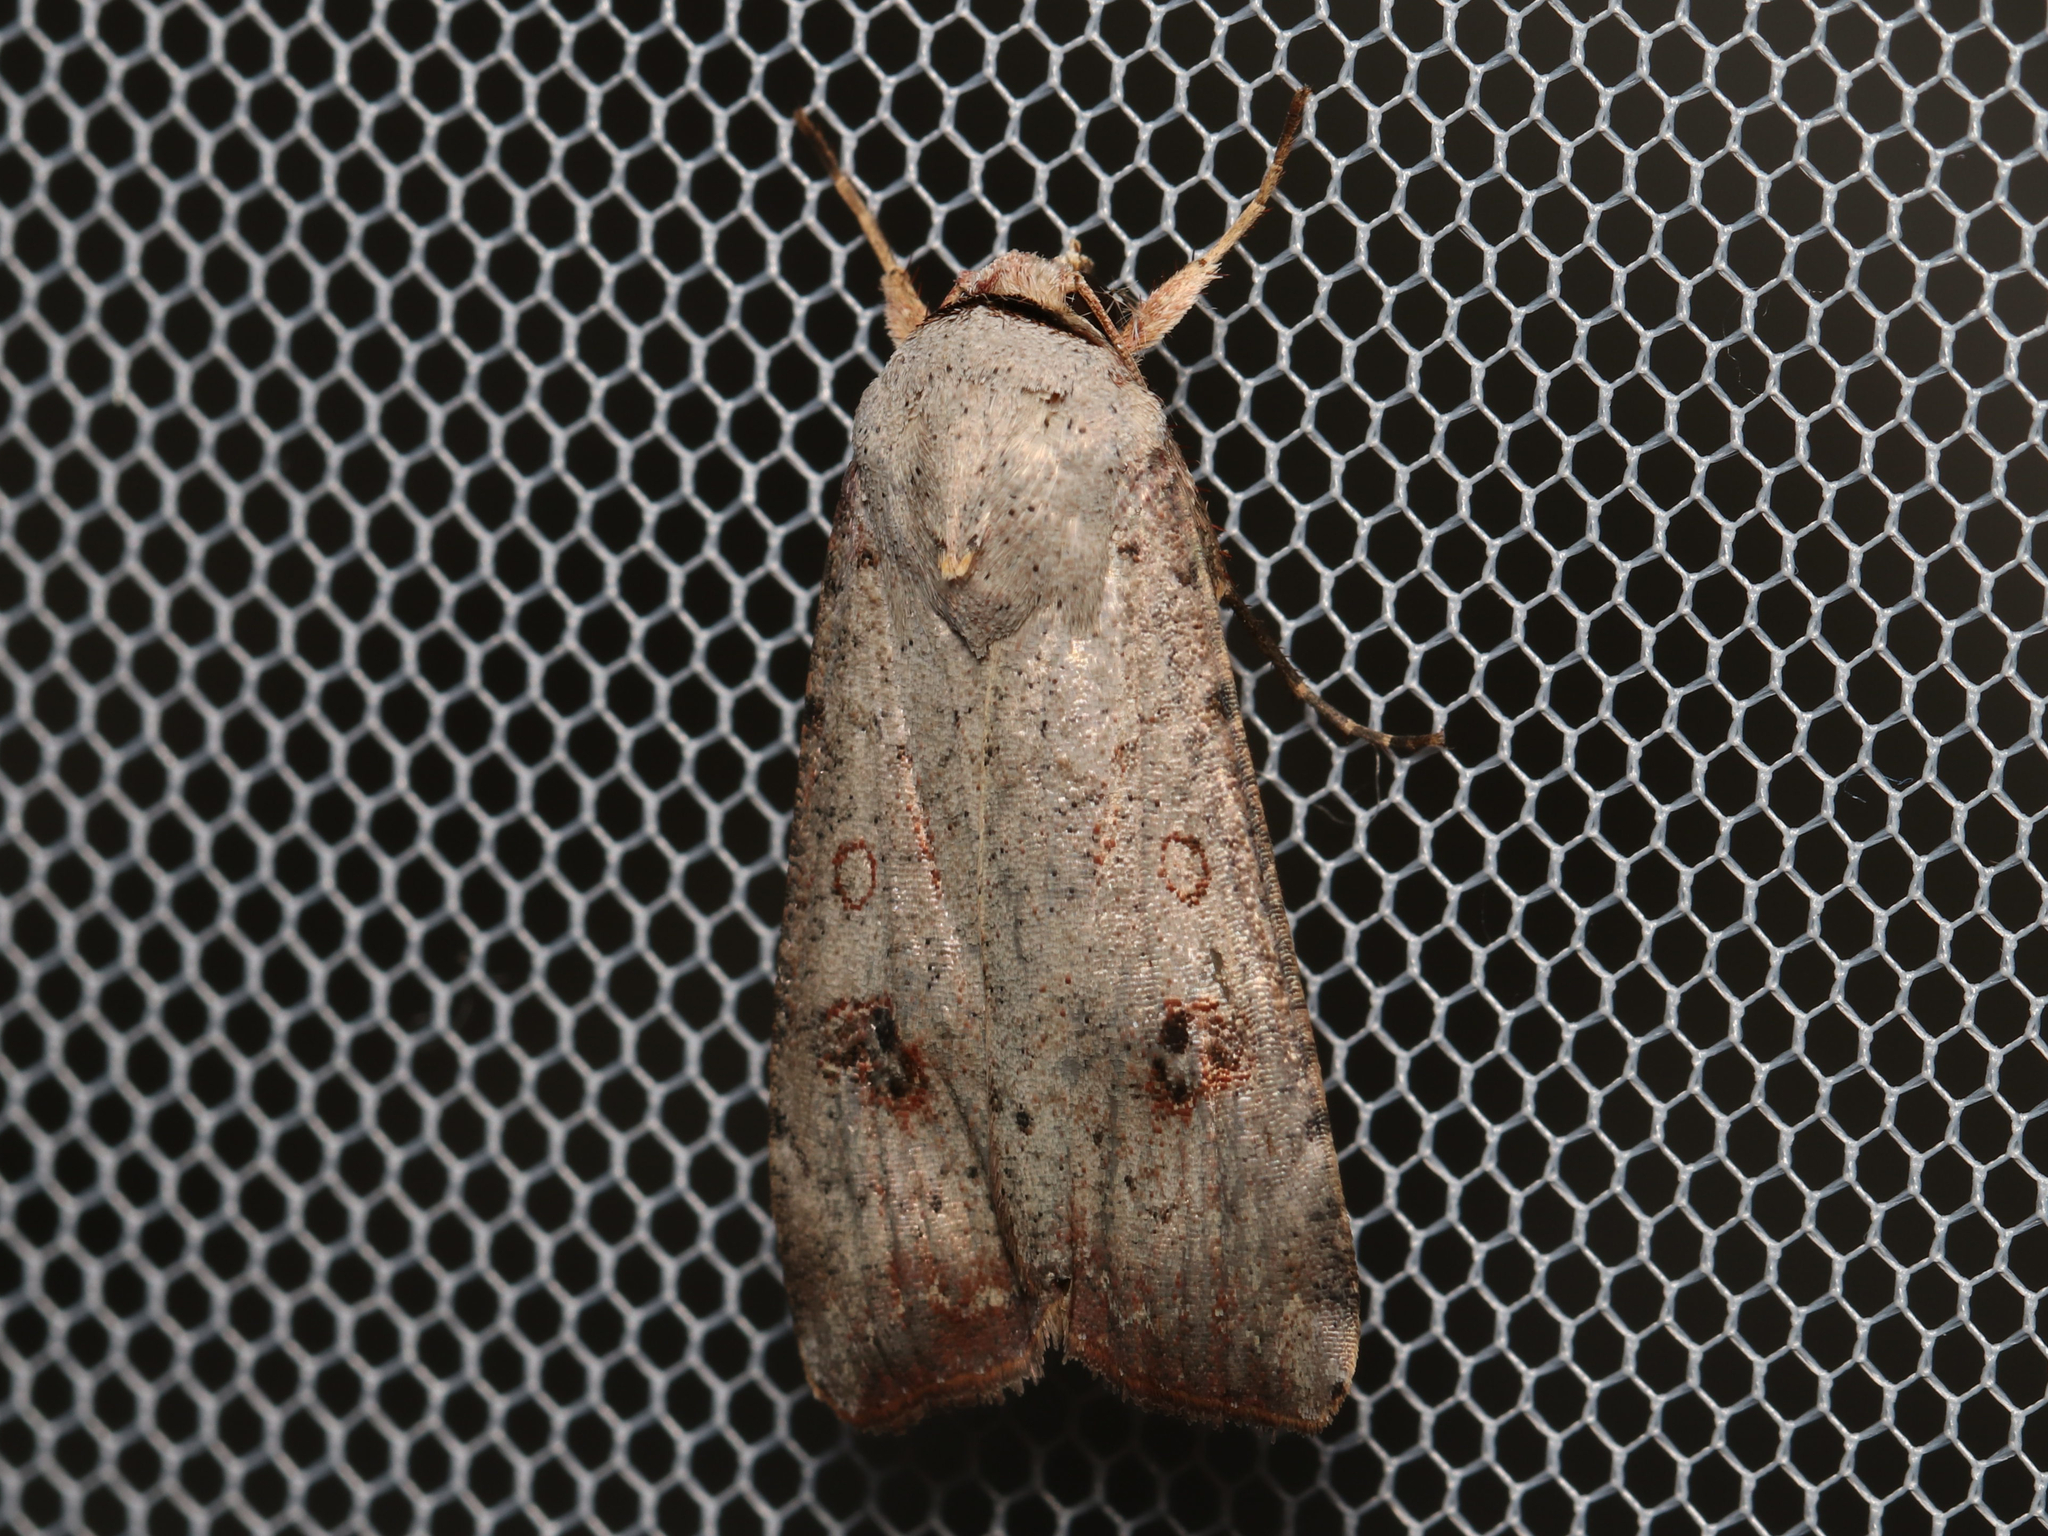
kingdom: Animalia
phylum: Arthropoda
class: Insecta
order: Lepidoptera
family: Noctuidae
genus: Anicla
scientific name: Anicla infecta
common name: Green cutworm
